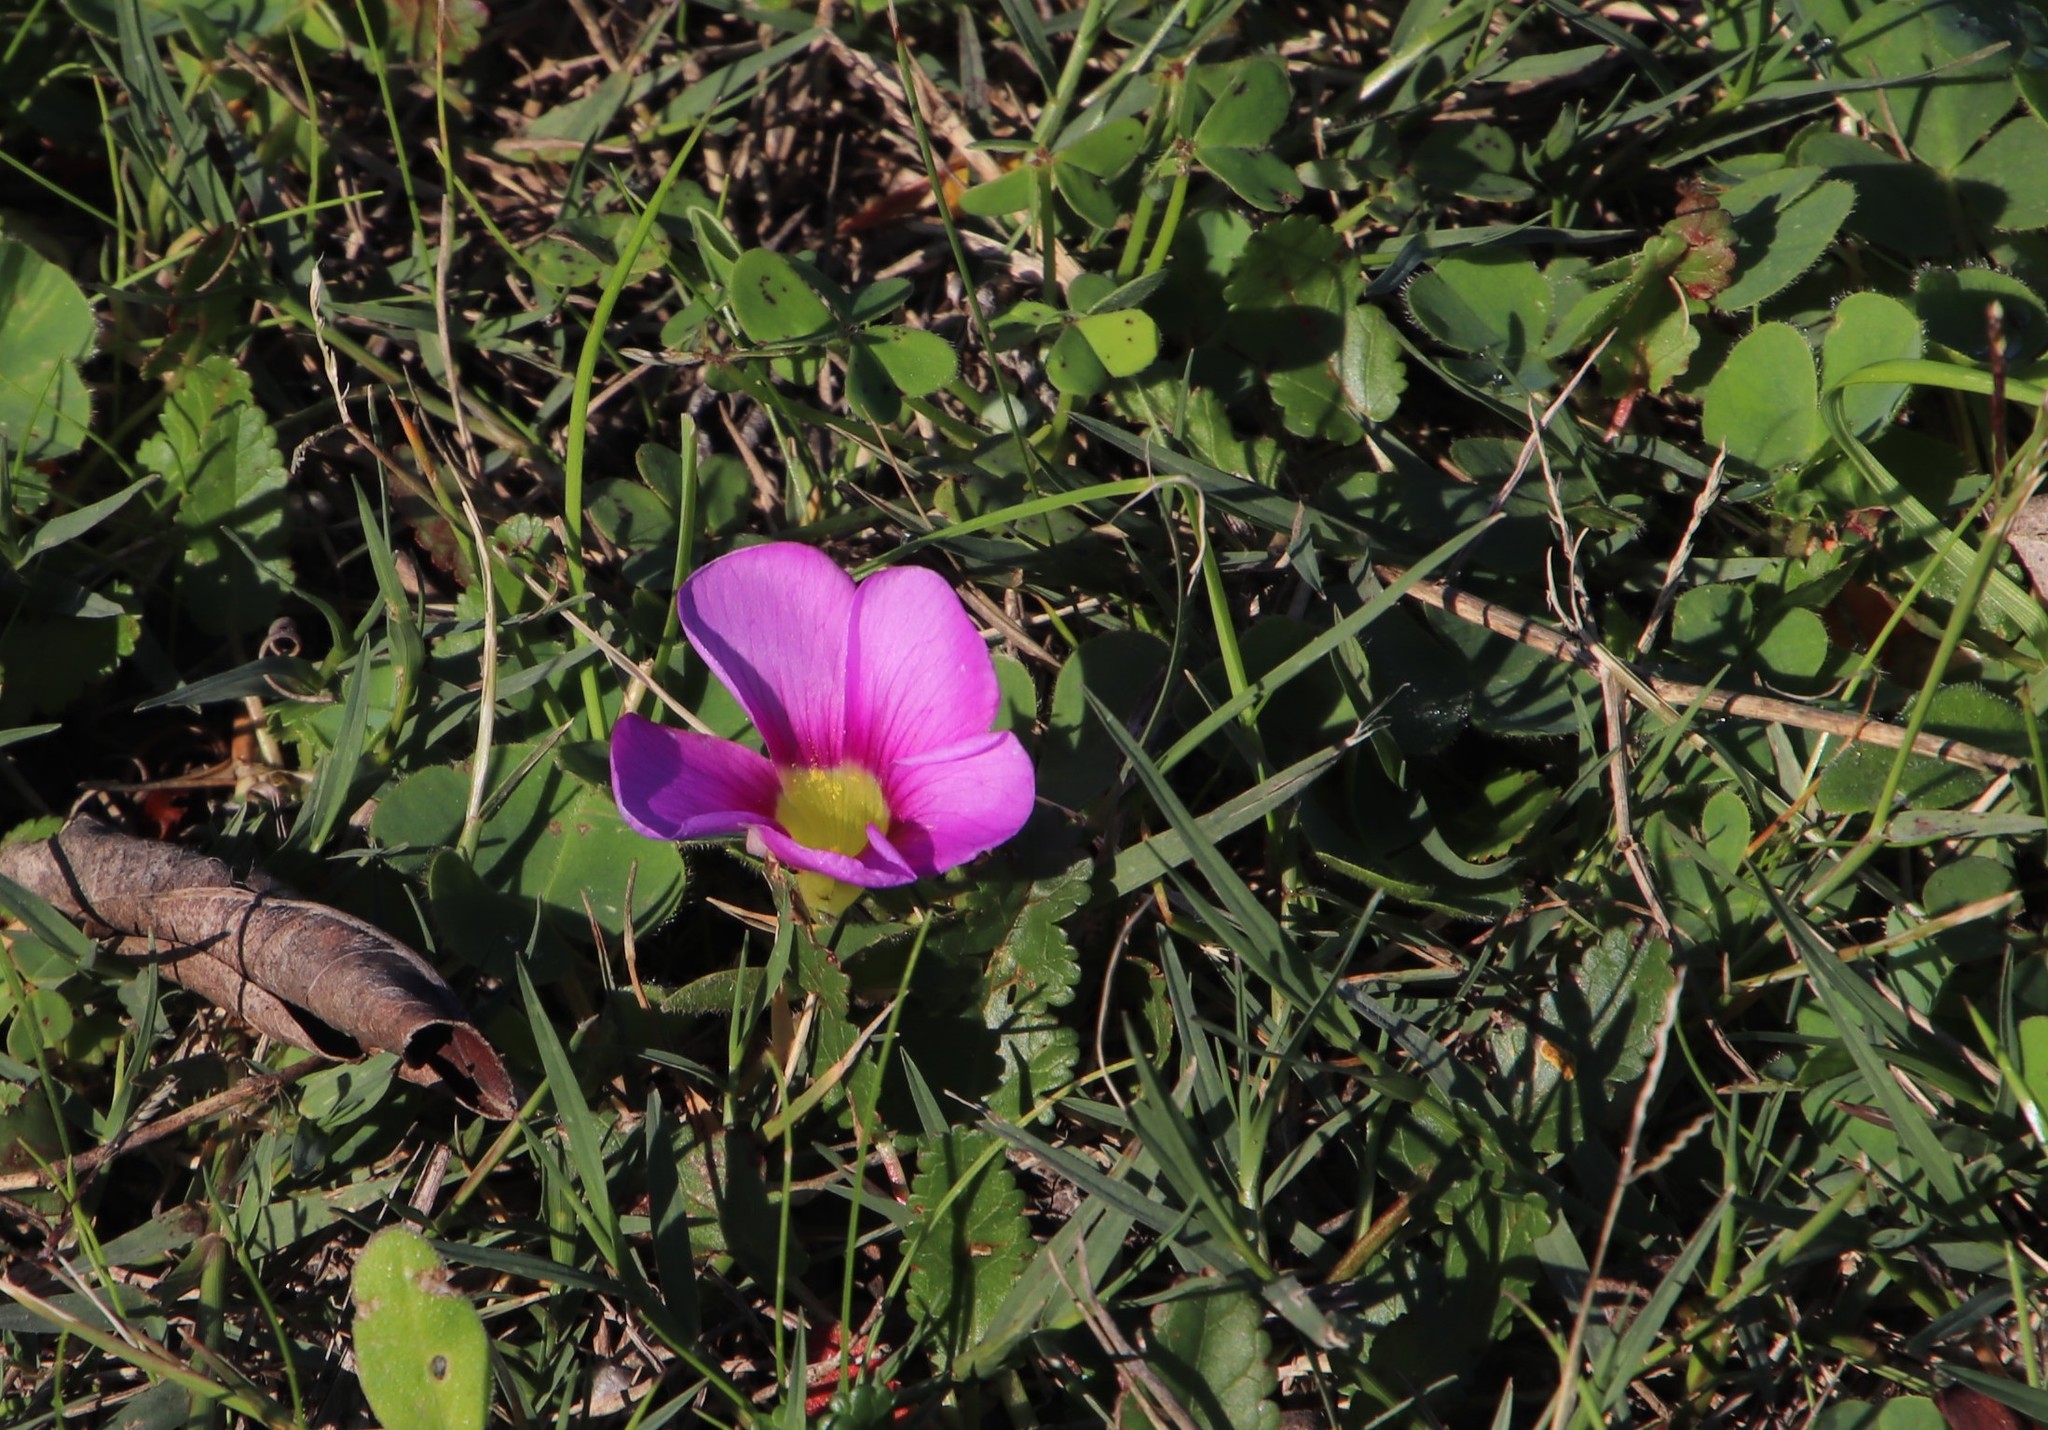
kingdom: Plantae
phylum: Tracheophyta
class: Magnoliopsida
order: Oxalidales
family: Oxalidaceae
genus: Oxalis
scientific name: Oxalis purpurea
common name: Purple woodsorrel
